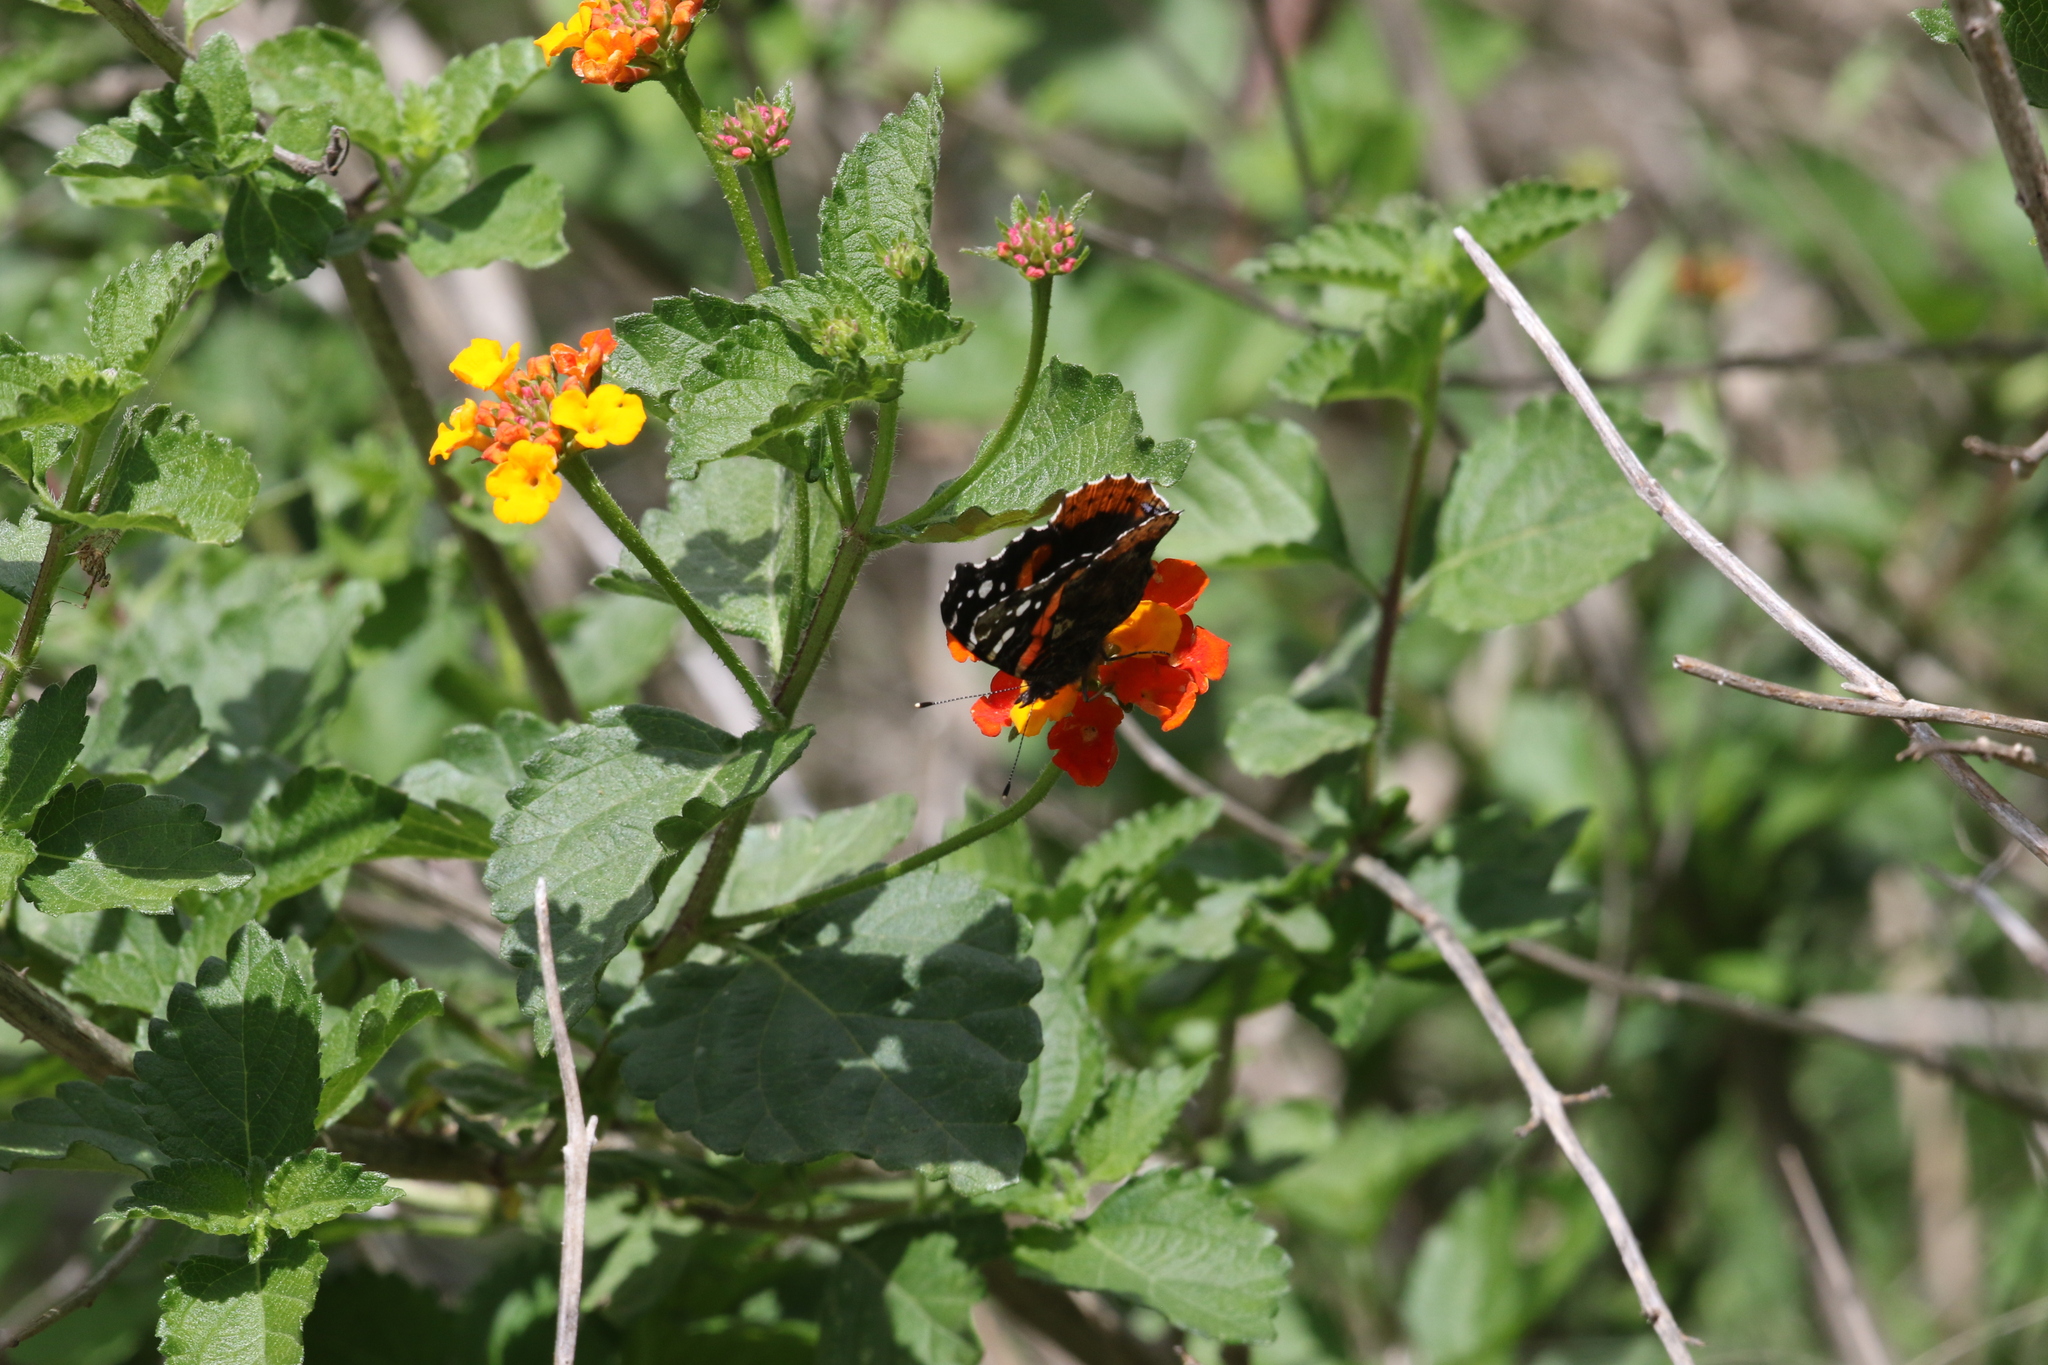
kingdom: Animalia
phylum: Arthropoda
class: Insecta
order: Lepidoptera
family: Nymphalidae
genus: Vanessa
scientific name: Vanessa atalanta
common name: Red admiral
